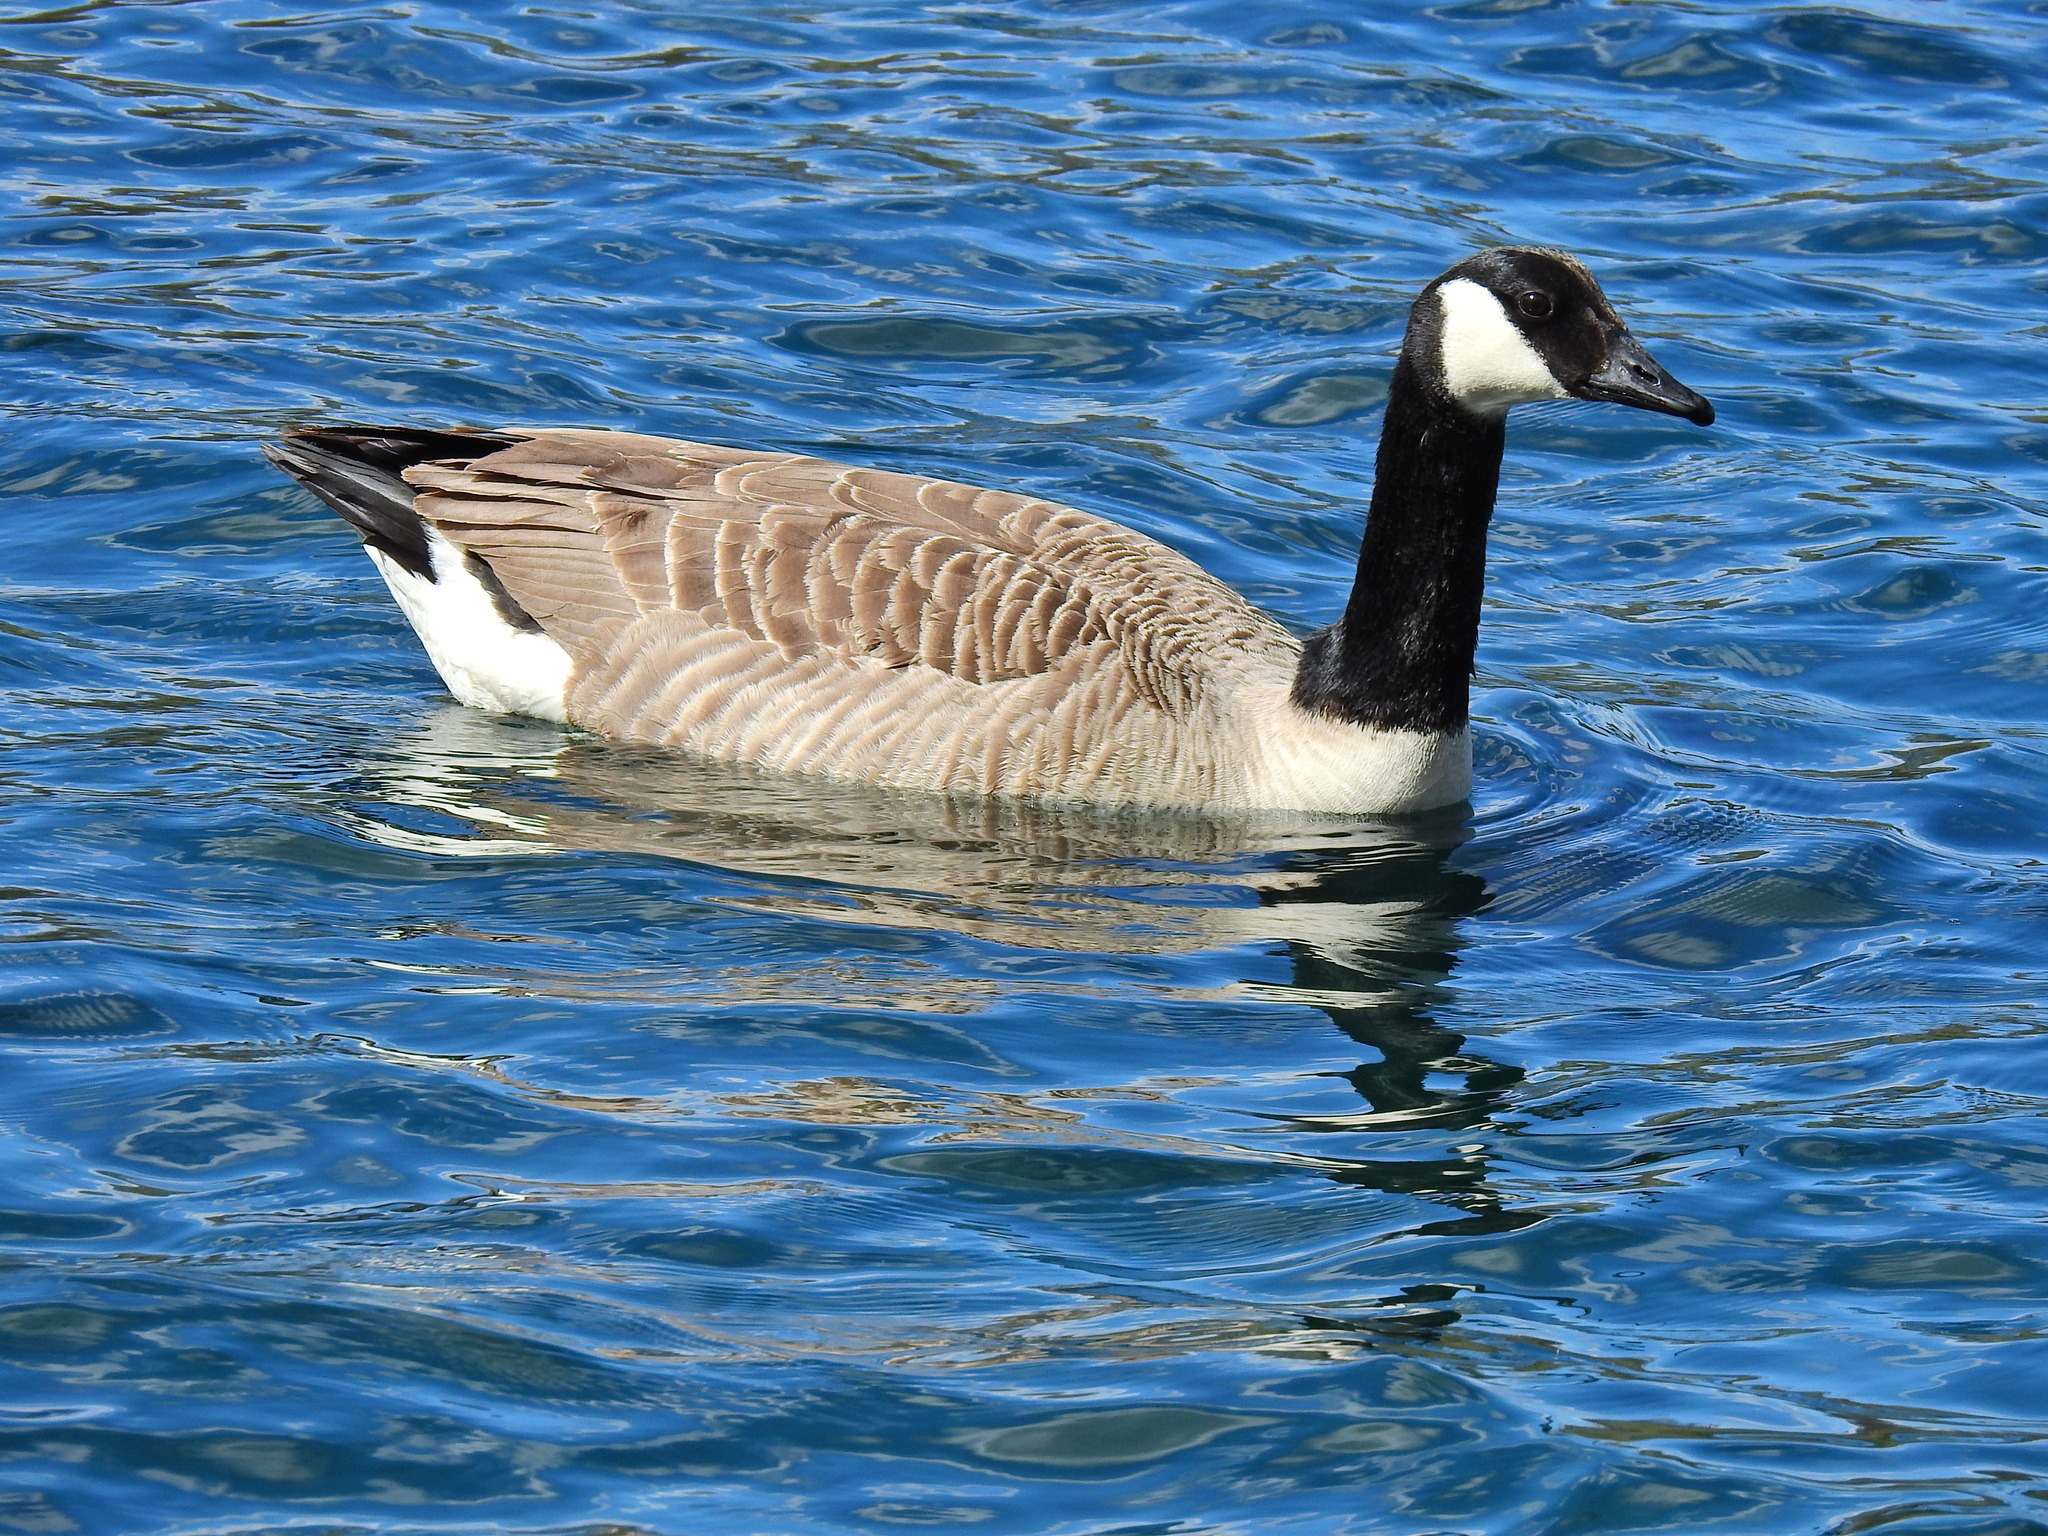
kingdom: Animalia
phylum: Chordata
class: Aves
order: Anseriformes
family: Anatidae
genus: Branta
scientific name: Branta canadensis
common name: Canada goose
